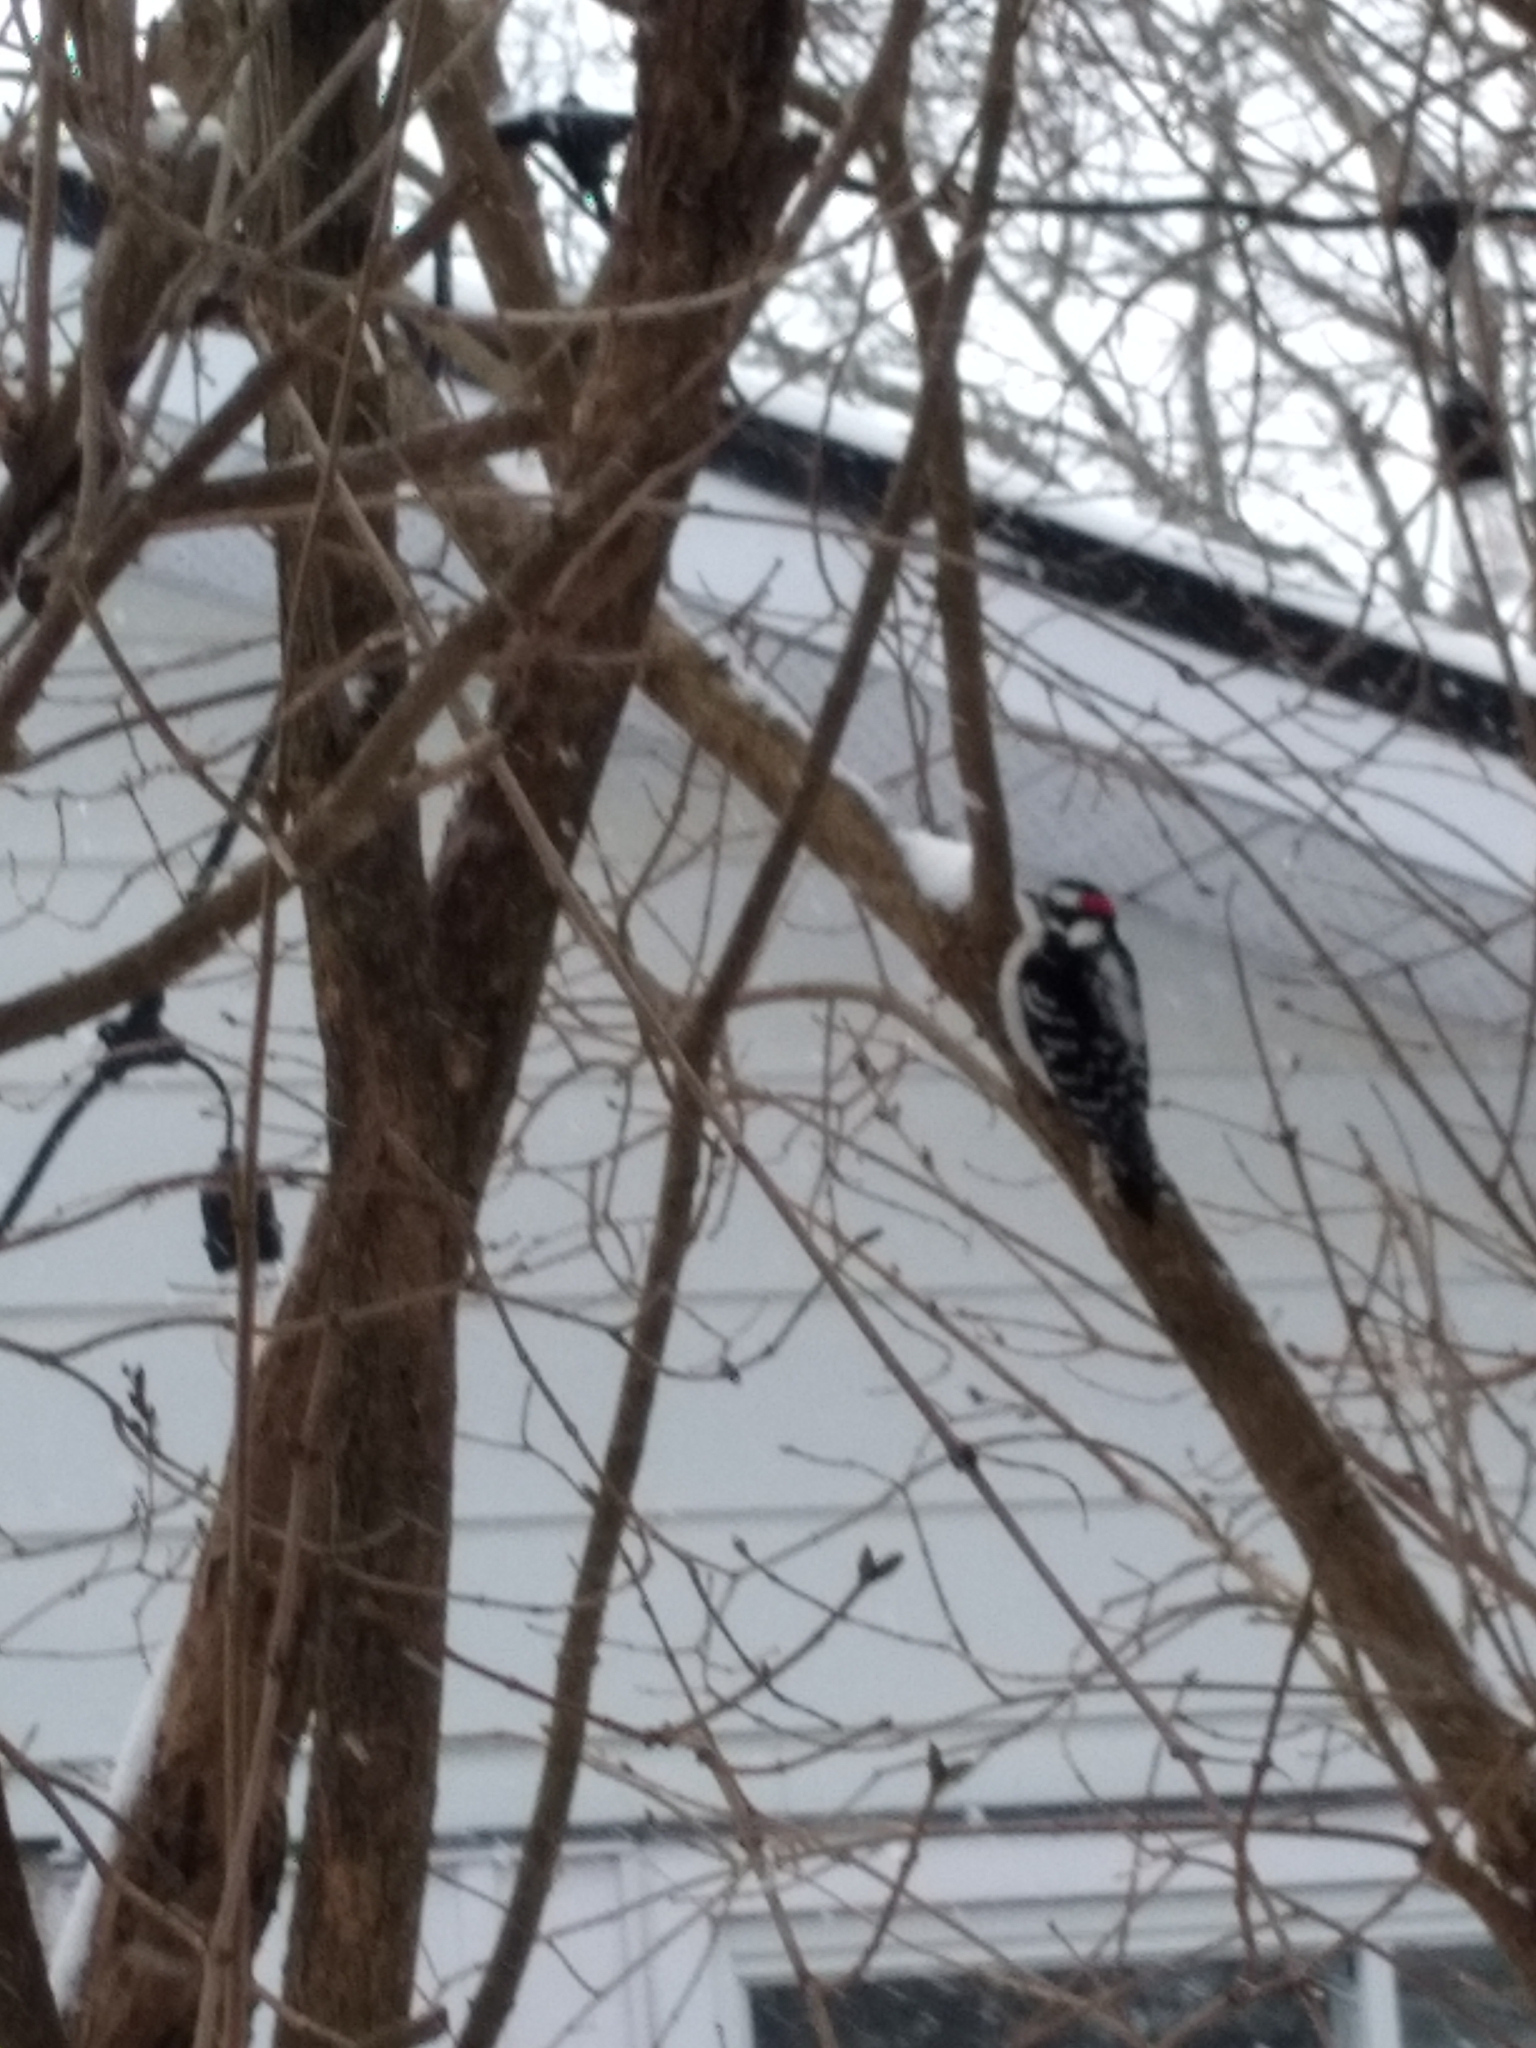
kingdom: Animalia
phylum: Chordata
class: Aves
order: Piciformes
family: Picidae
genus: Dryobates
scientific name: Dryobates pubescens
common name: Downy woodpecker
